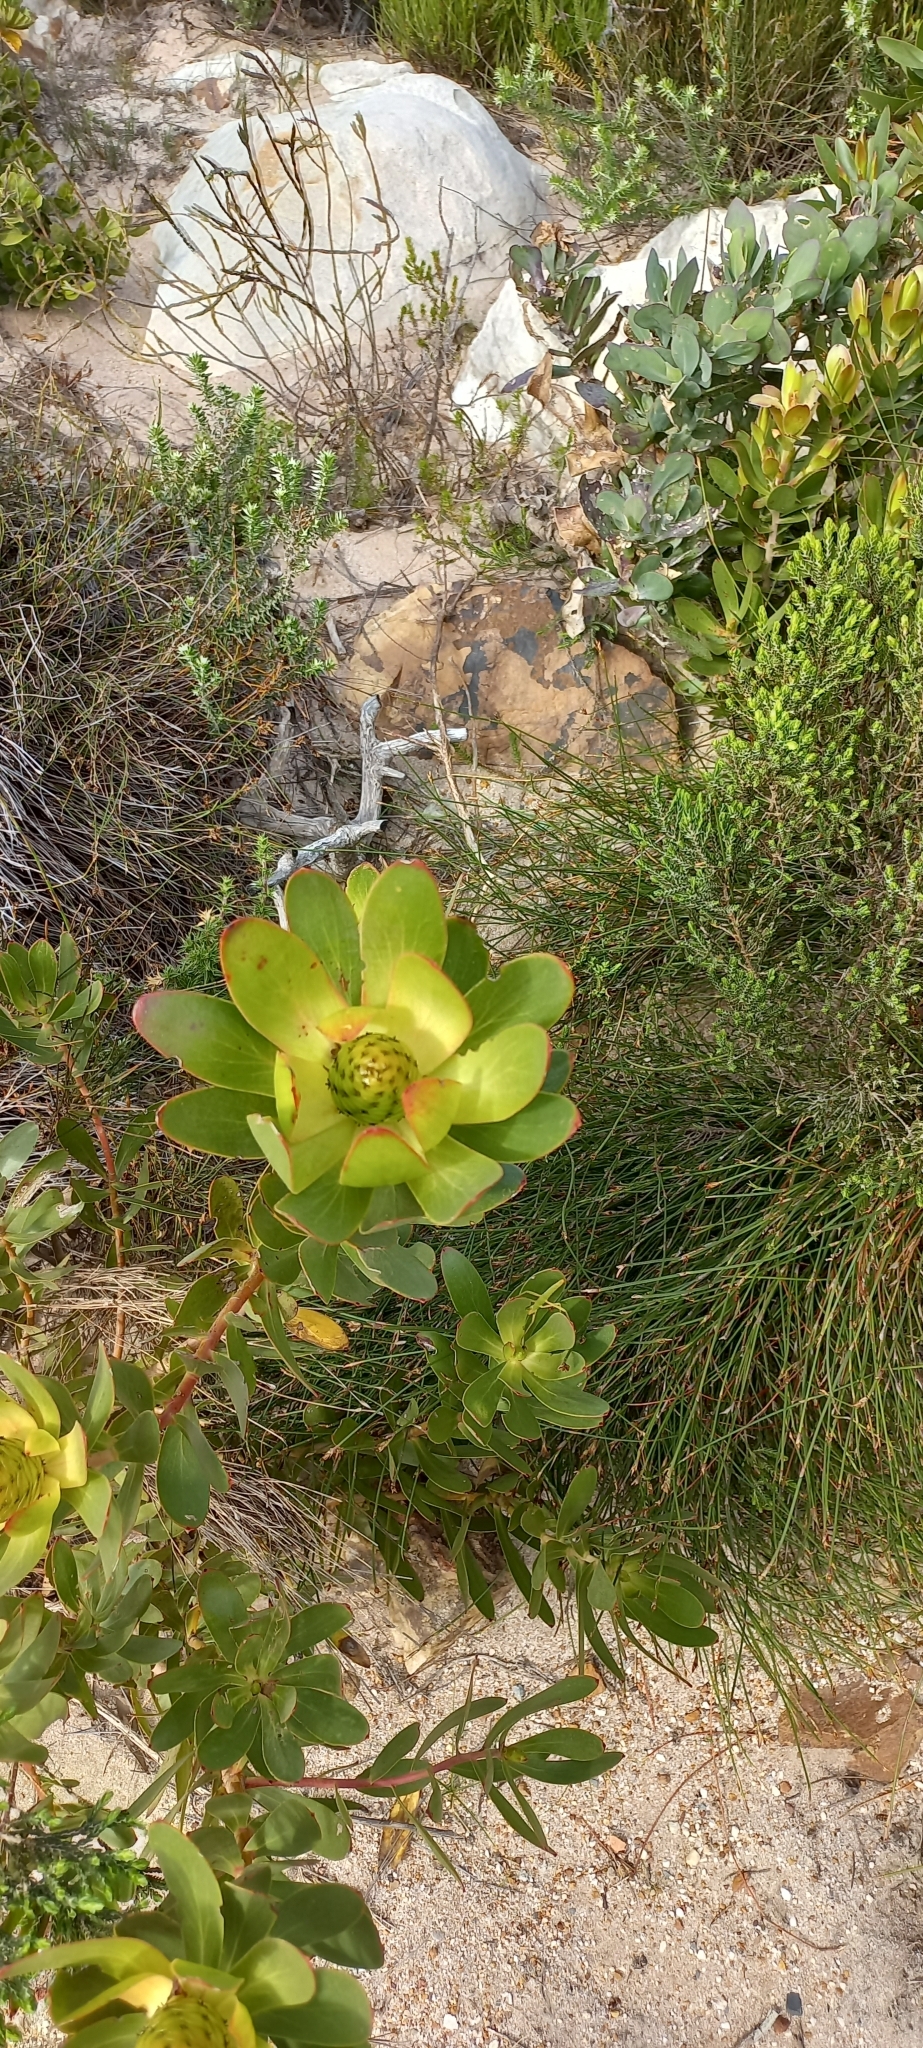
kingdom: Plantae
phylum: Tracheophyta
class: Magnoliopsida
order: Proteales
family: Proteaceae
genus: Leucadendron
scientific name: Leucadendron gandogeri
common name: Broad-leaf conebush
